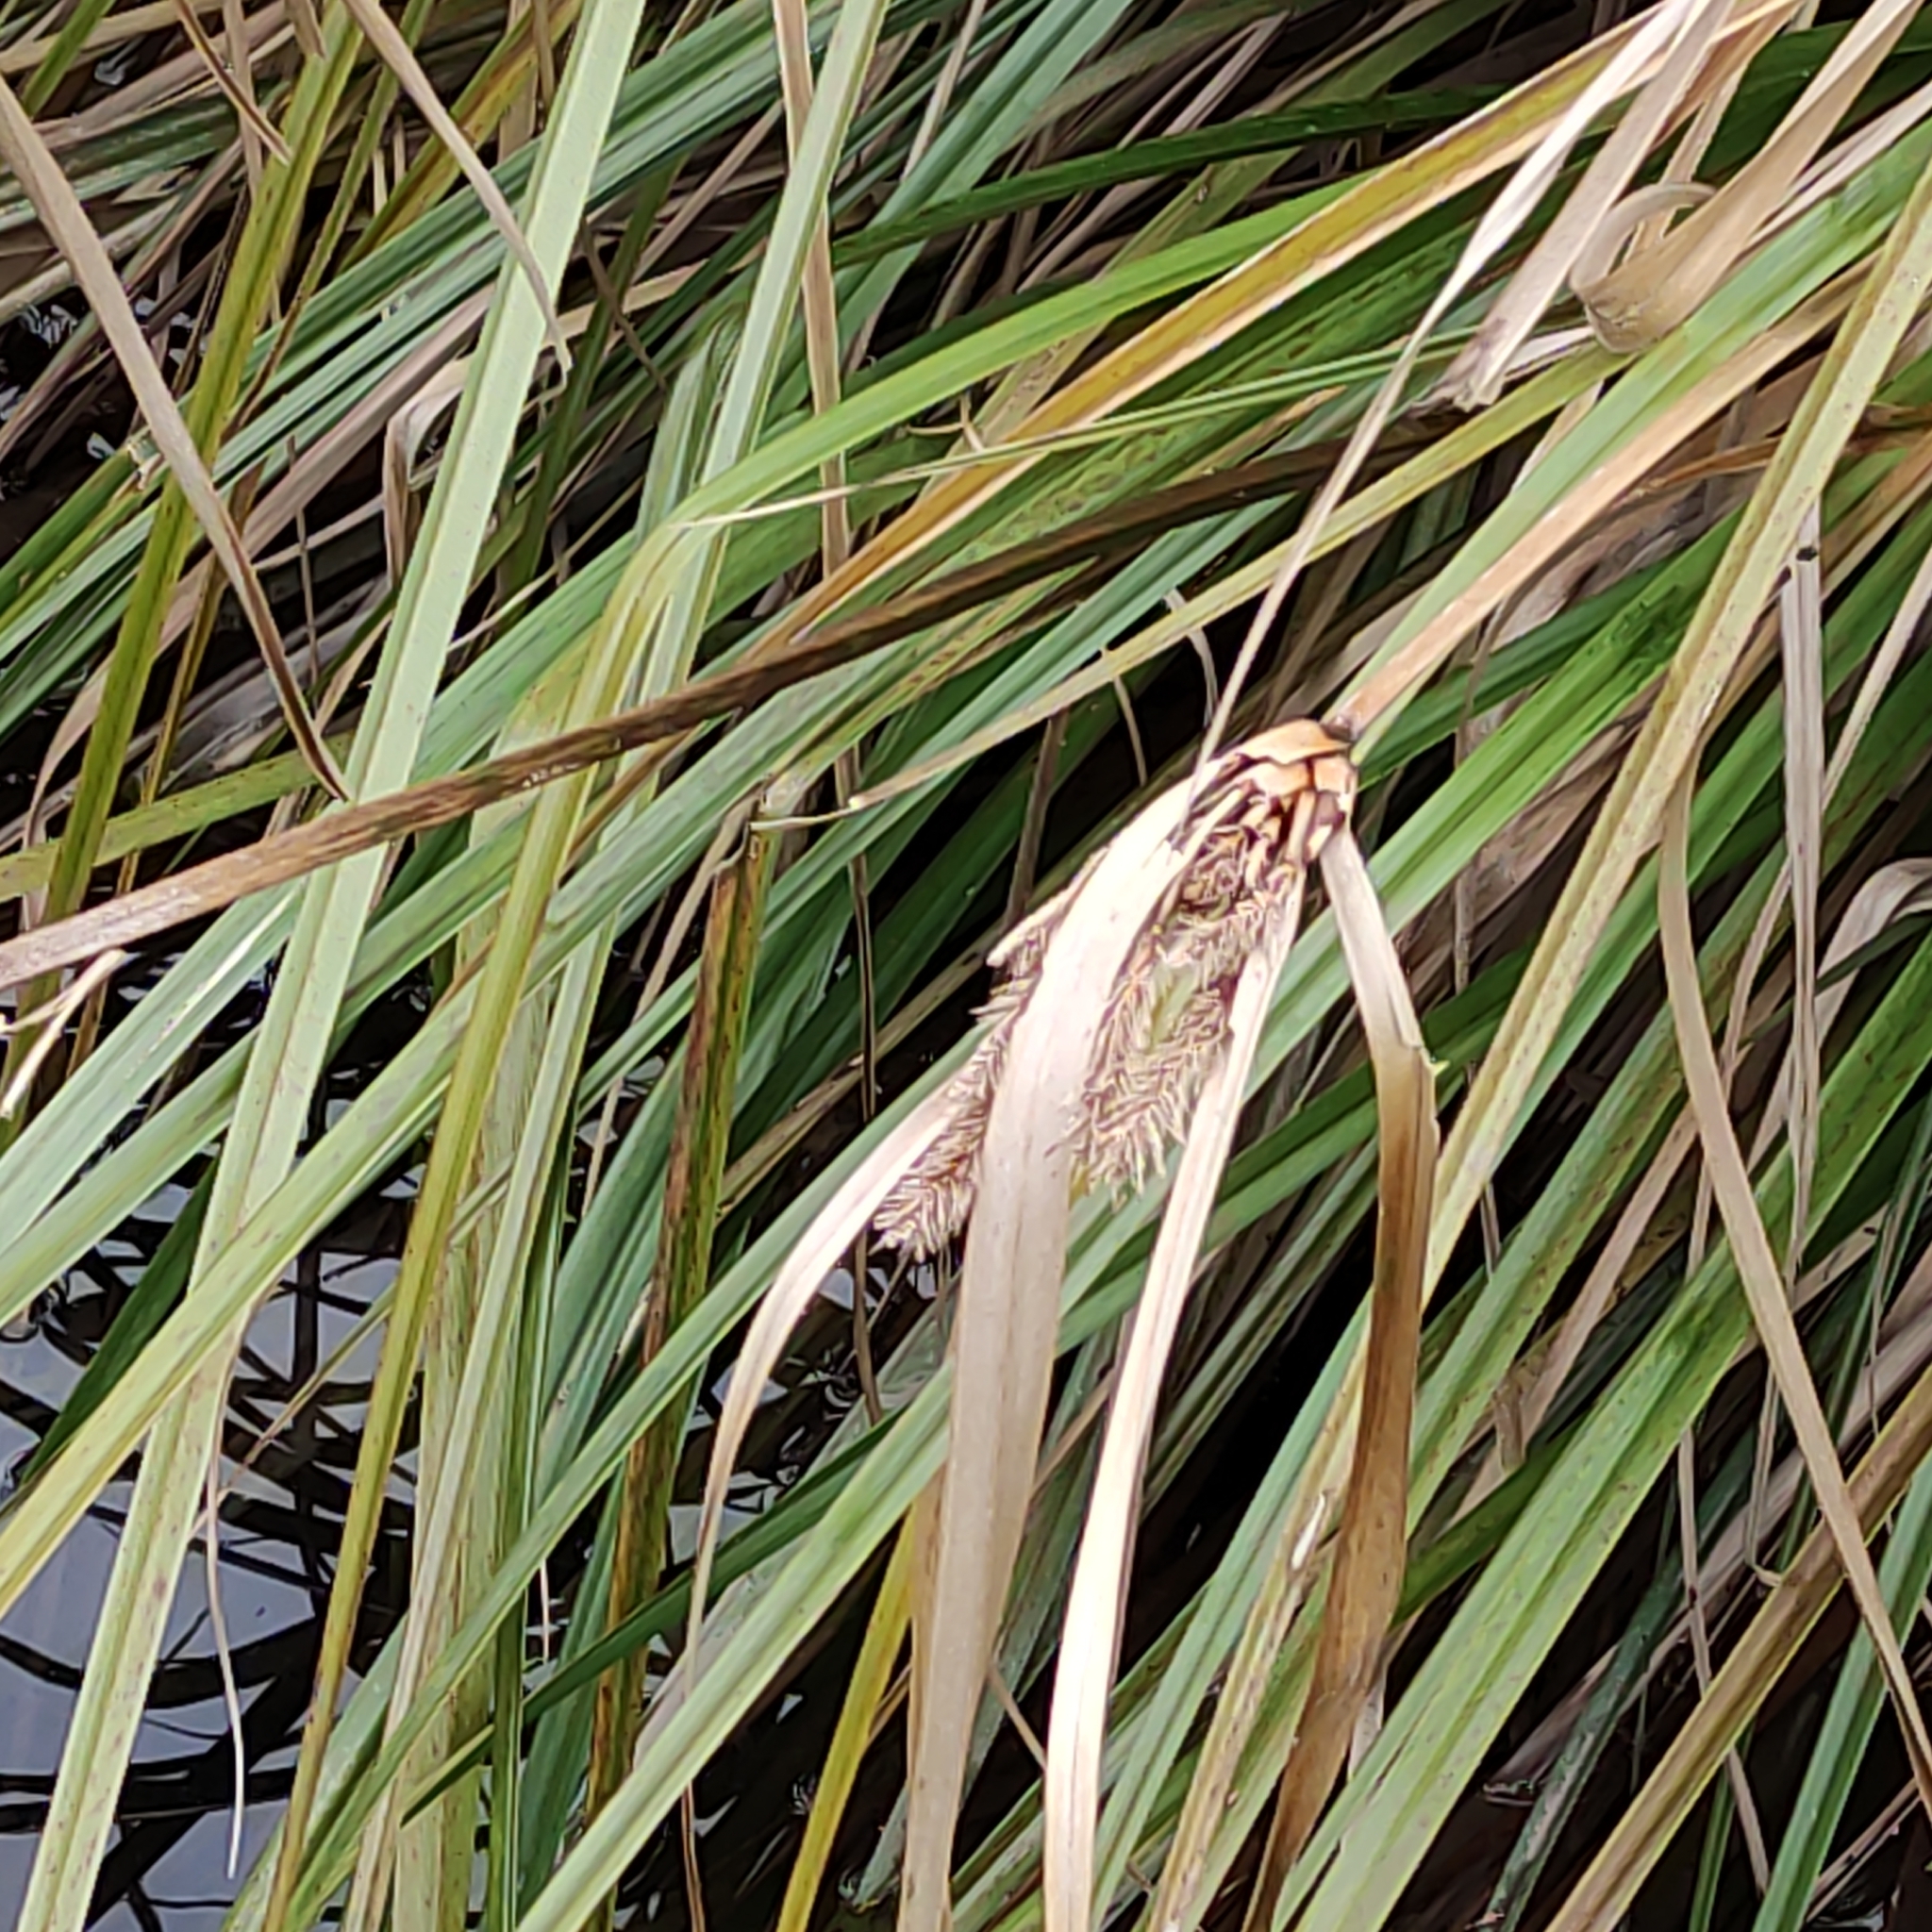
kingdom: Plantae
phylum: Tracheophyta
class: Liliopsida
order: Poales
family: Cyperaceae
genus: Cyperus
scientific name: Cyperus ustulatus
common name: Giant umbrella-sedge
